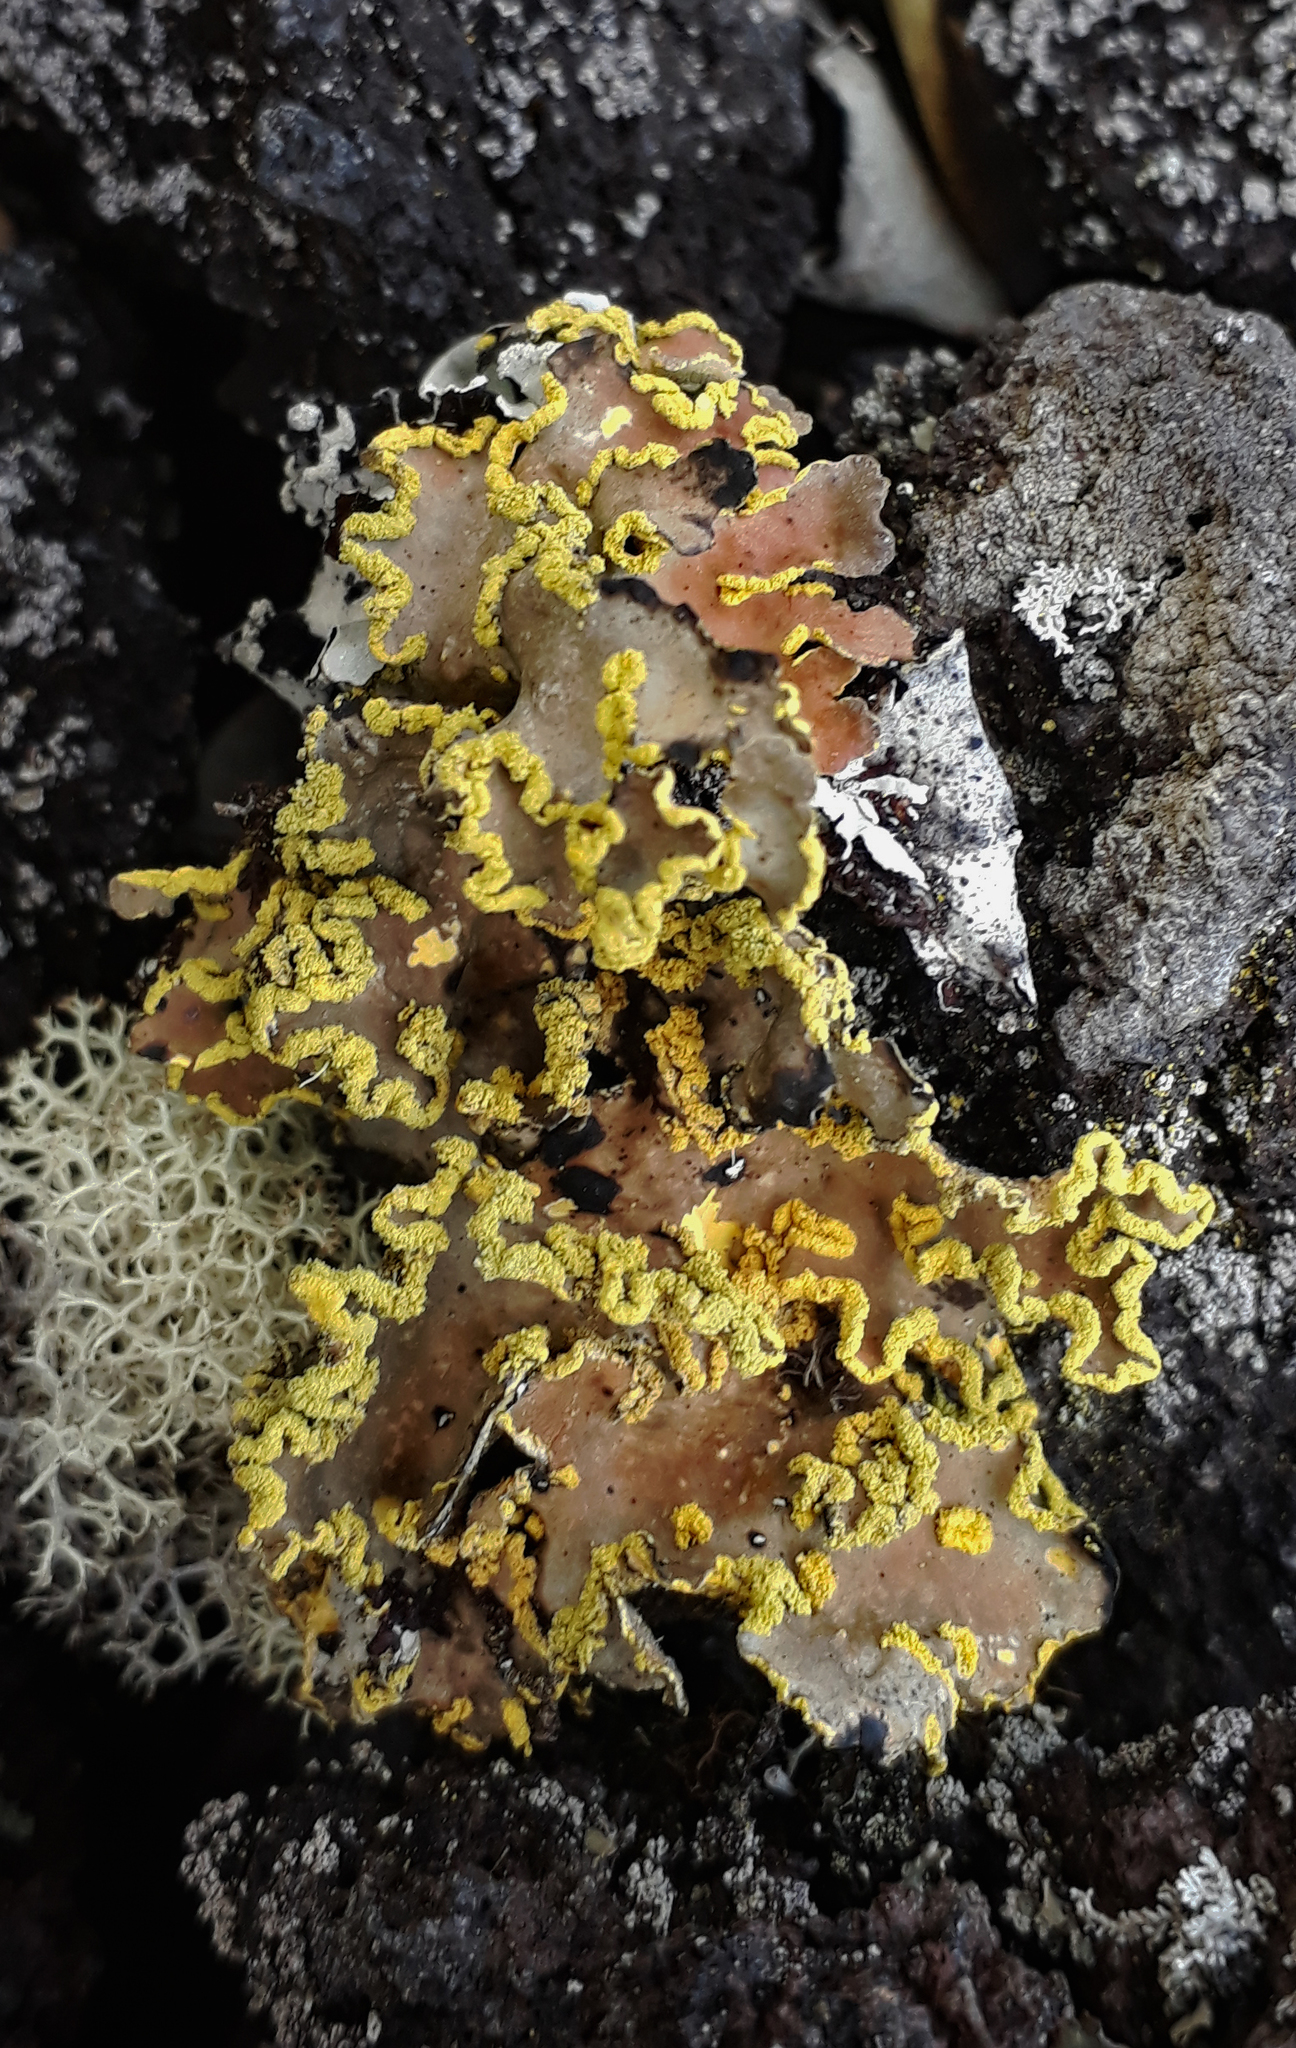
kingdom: Fungi
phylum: Ascomycota
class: Lecanoromycetes
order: Peltigerales
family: Lobariaceae
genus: Pseudocyphellaria
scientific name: Pseudocyphellaria aurata
